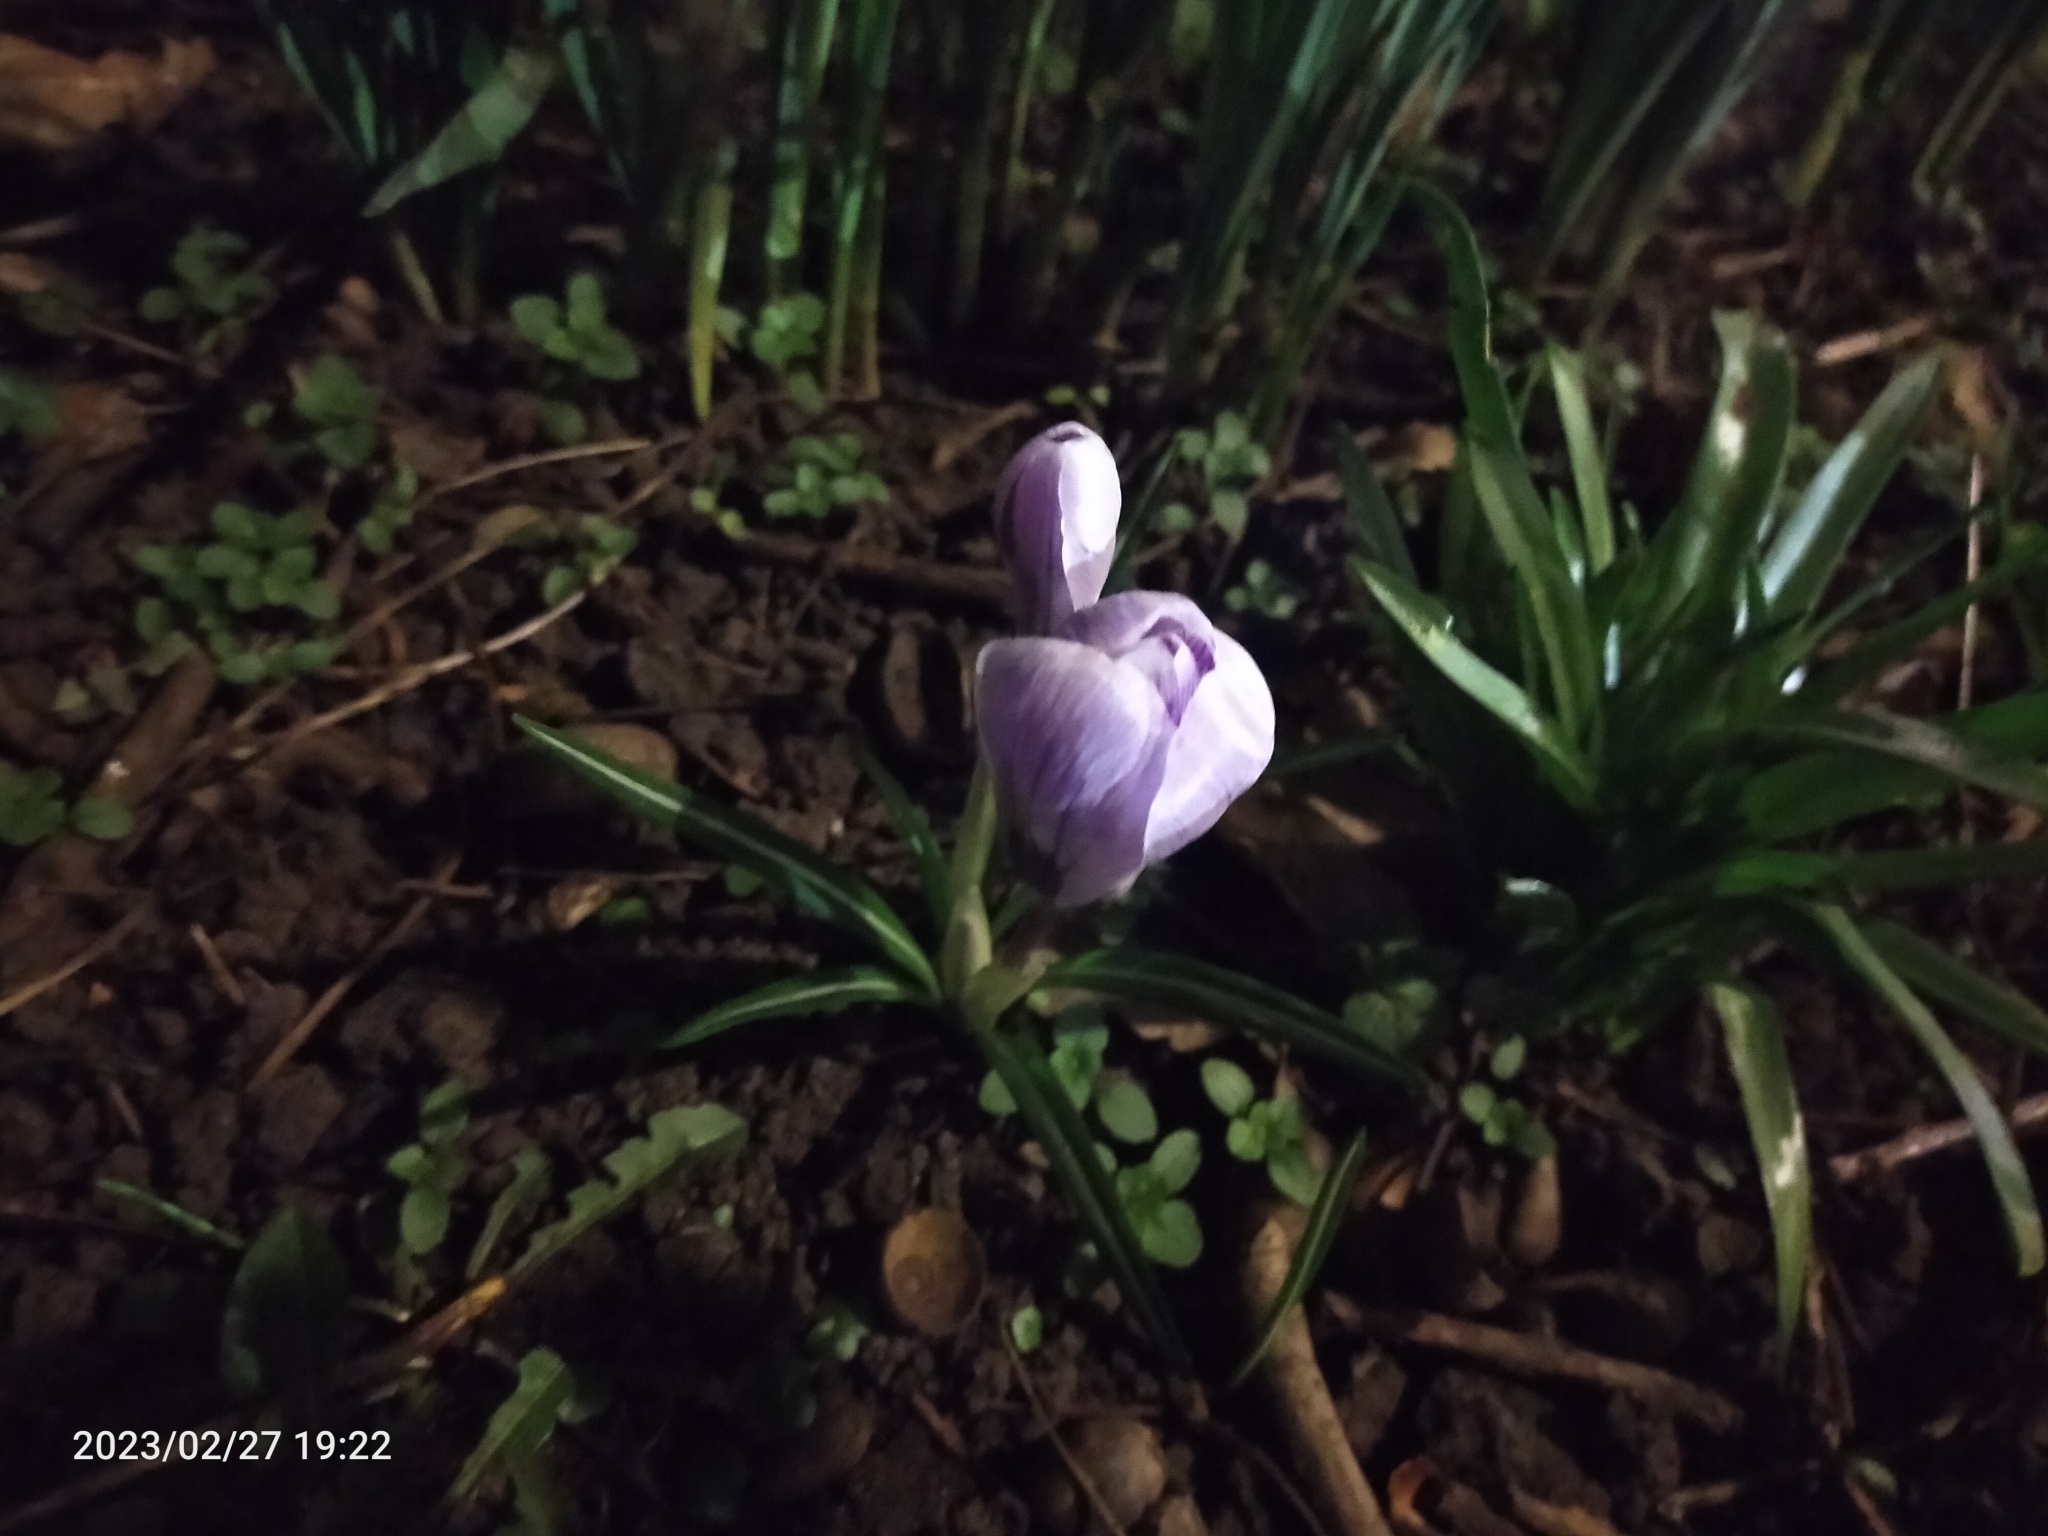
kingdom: Plantae
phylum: Tracheophyta
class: Liliopsida
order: Asparagales
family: Iridaceae
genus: Crocus
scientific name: Crocus neapolitanus
